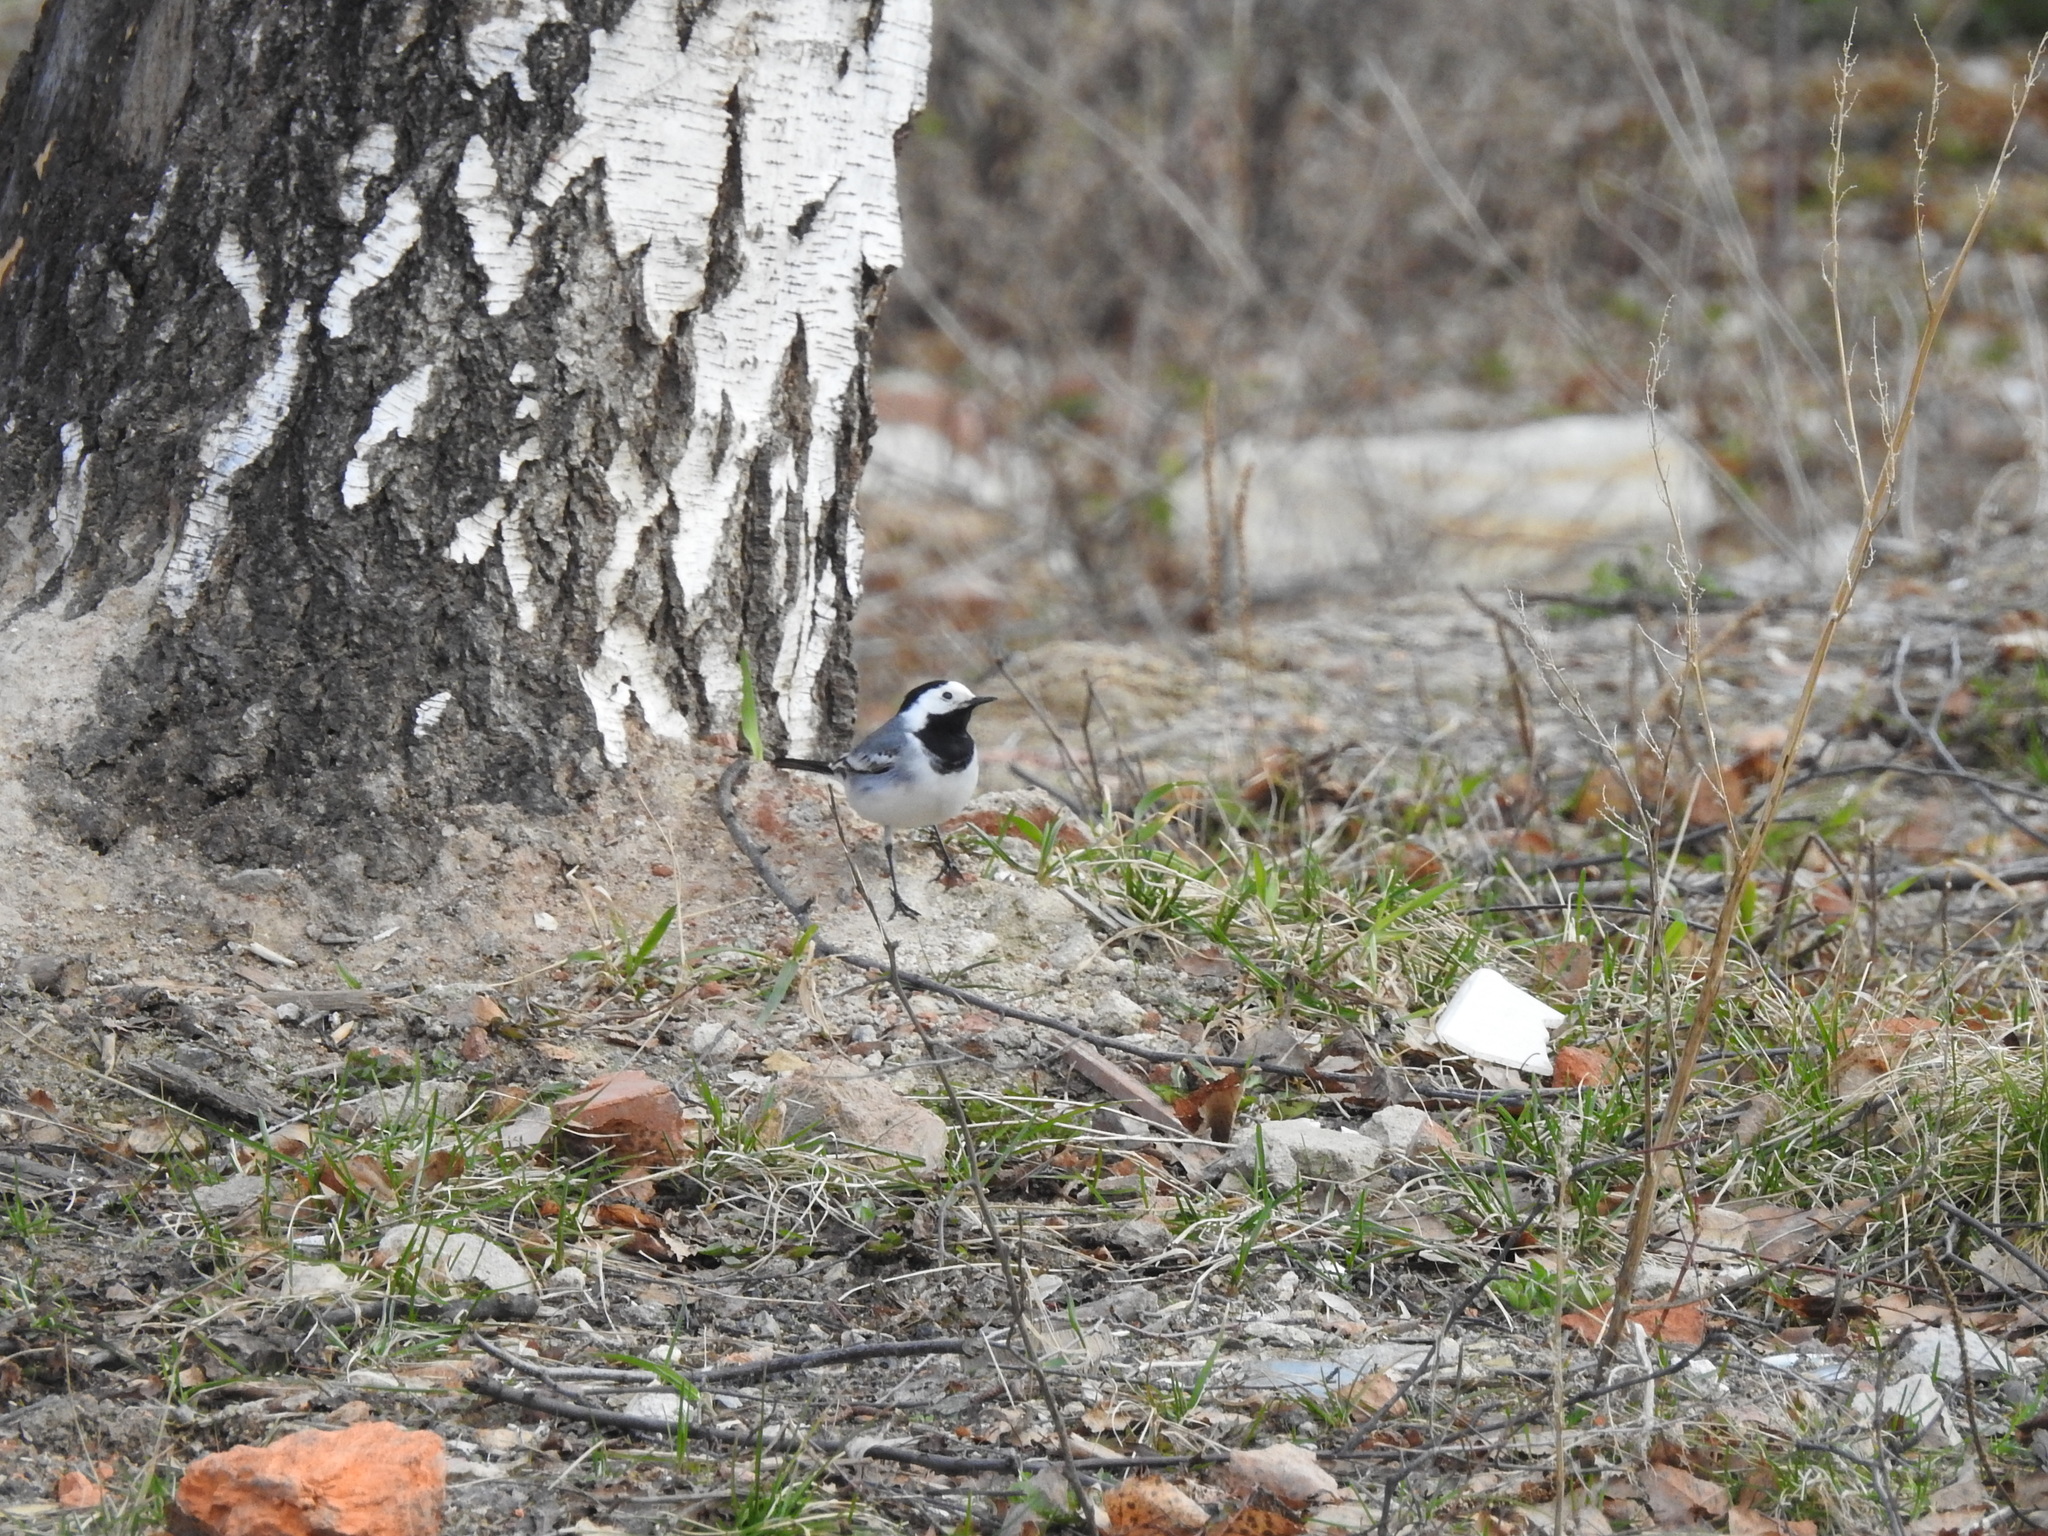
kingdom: Animalia
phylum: Chordata
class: Aves
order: Passeriformes
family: Motacillidae
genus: Motacilla
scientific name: Motacilla alba
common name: White wagtail
